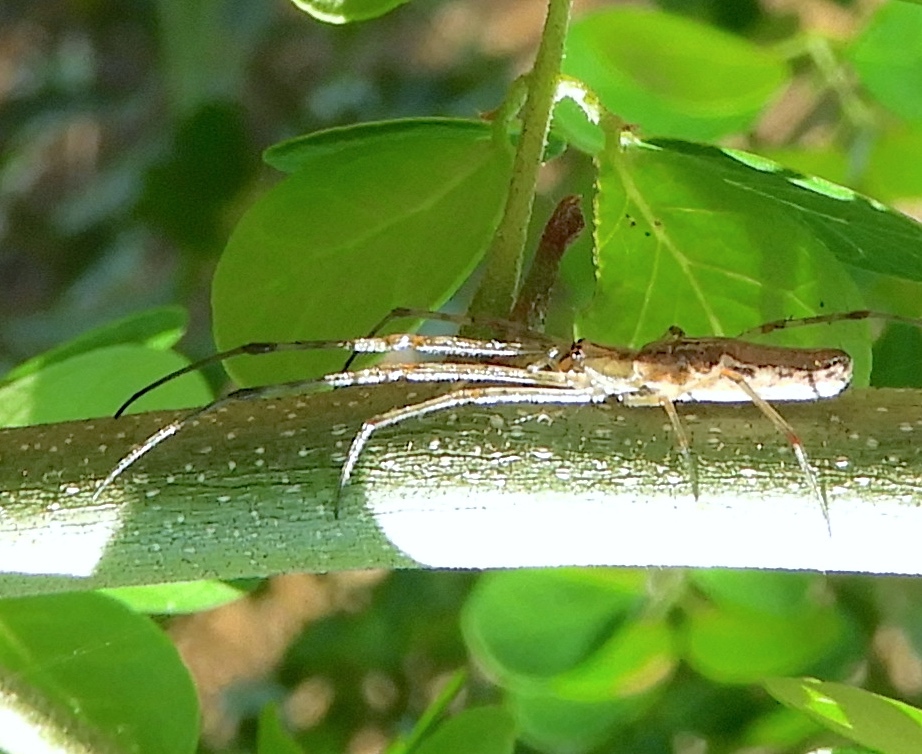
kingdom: Animalia
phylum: Arthropoda
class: Arachnida
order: Araneae
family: Tetragnathidae
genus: Tetragnatha
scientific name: Tetragnatha
